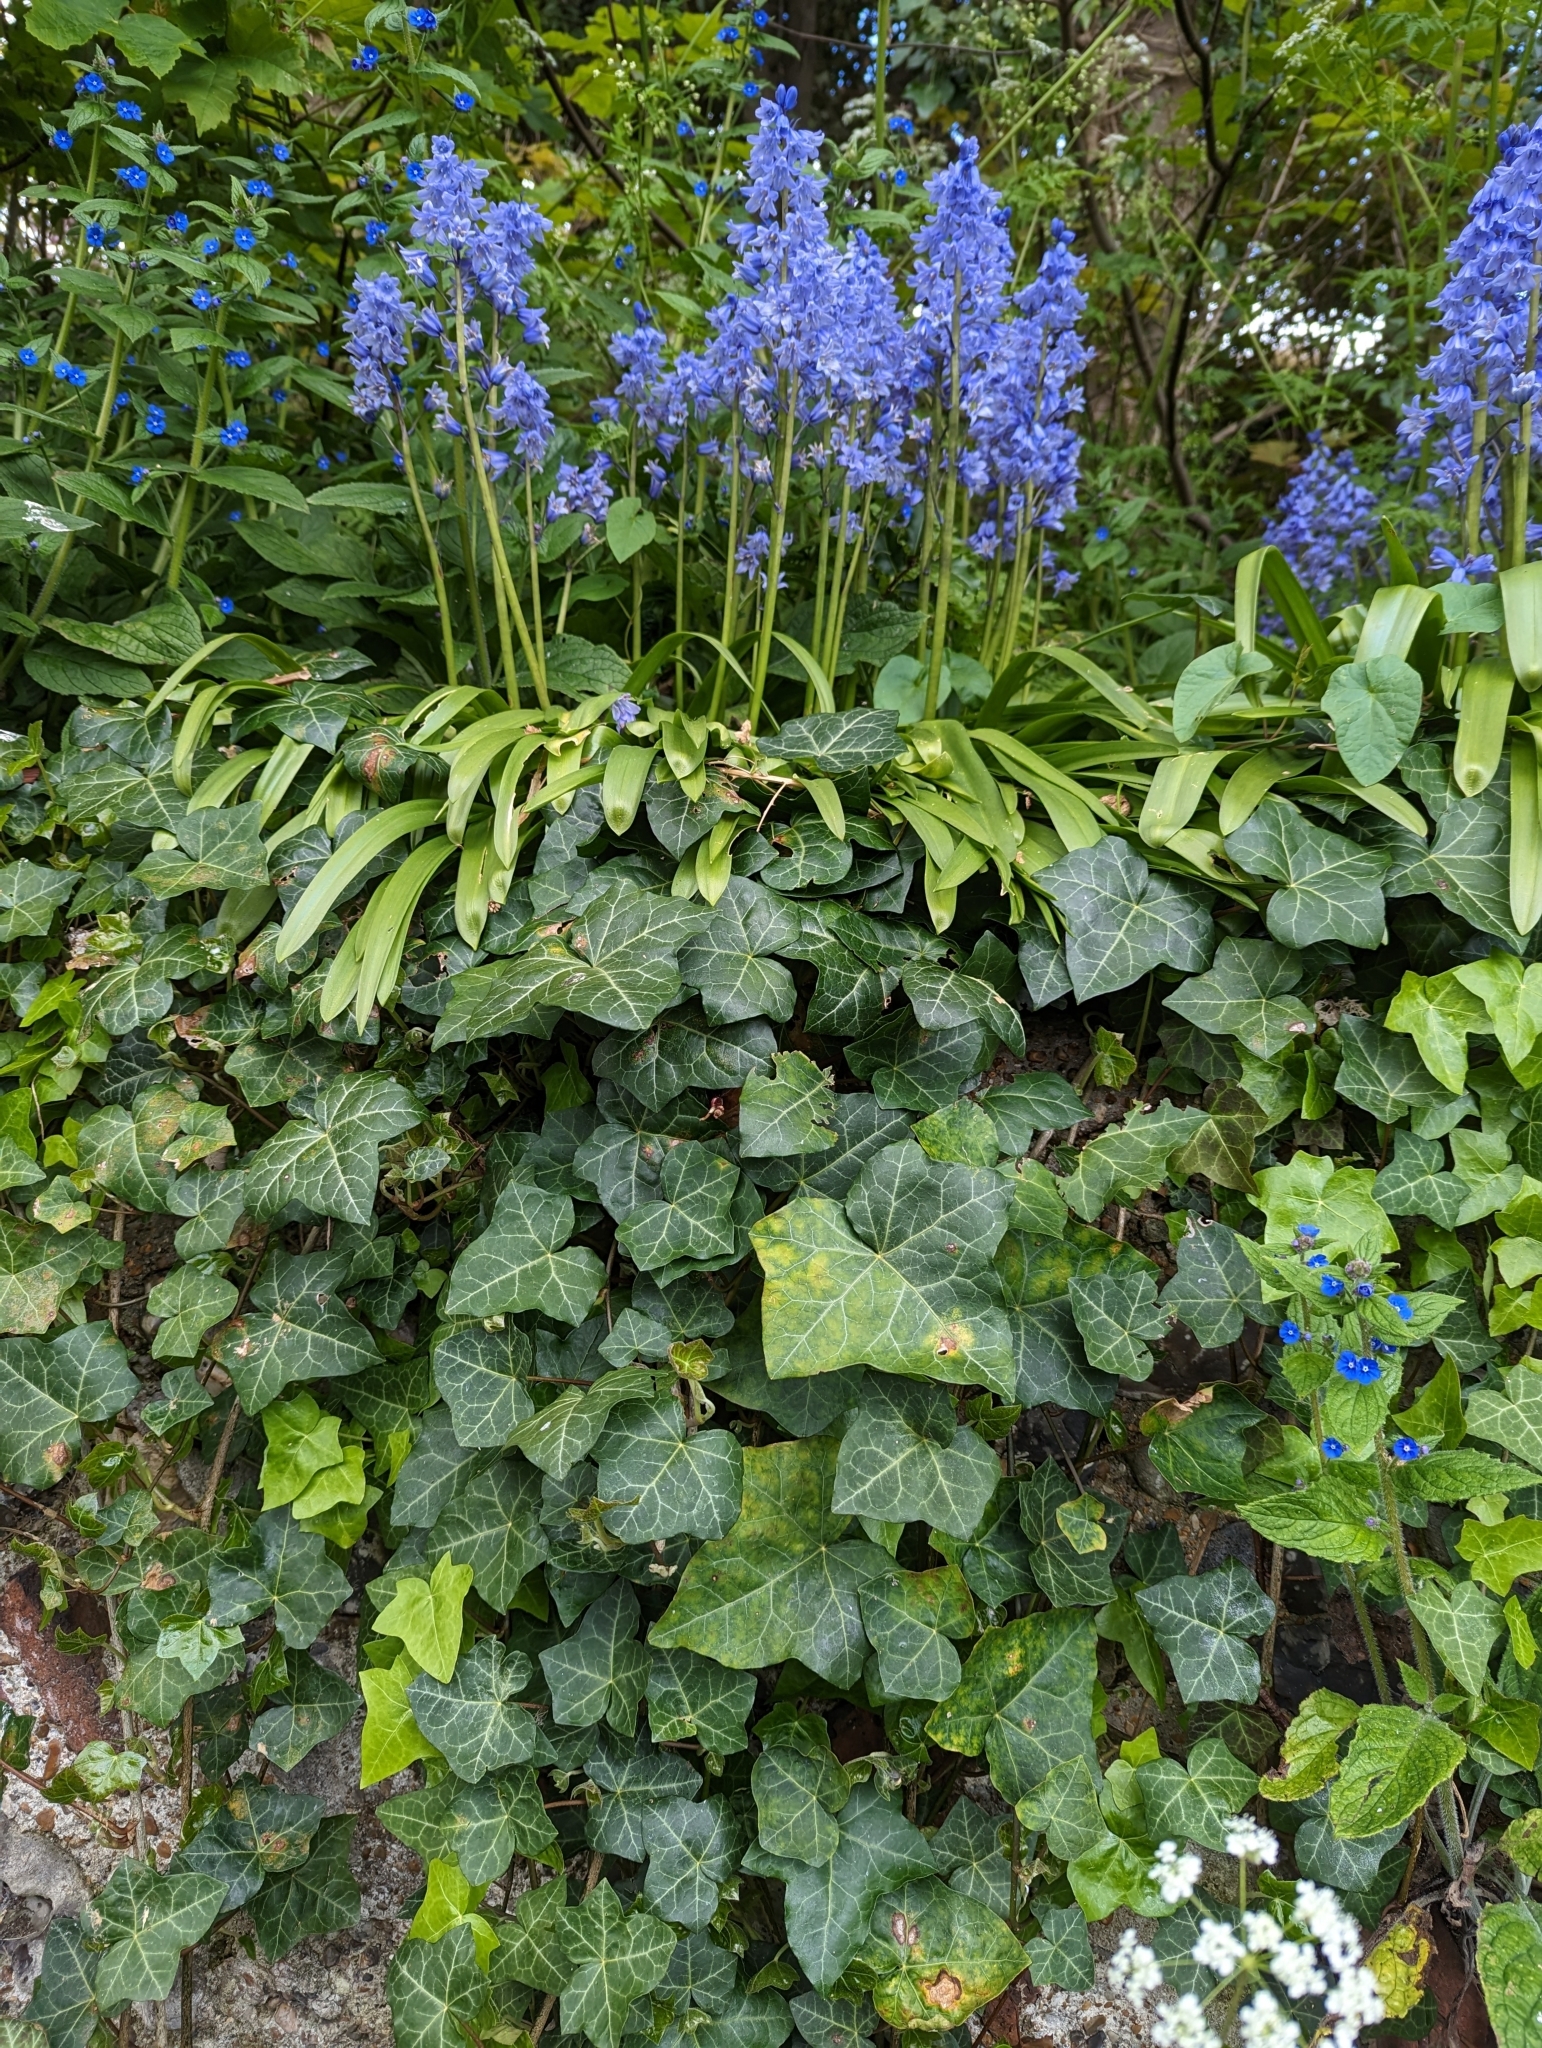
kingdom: Plantae
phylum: Tracheophyta
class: Liliopsida
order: Asparagales
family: Asparagaceae
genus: Hyacinthoides
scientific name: Hyacinthoides hispanica
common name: Spanish bluebell
